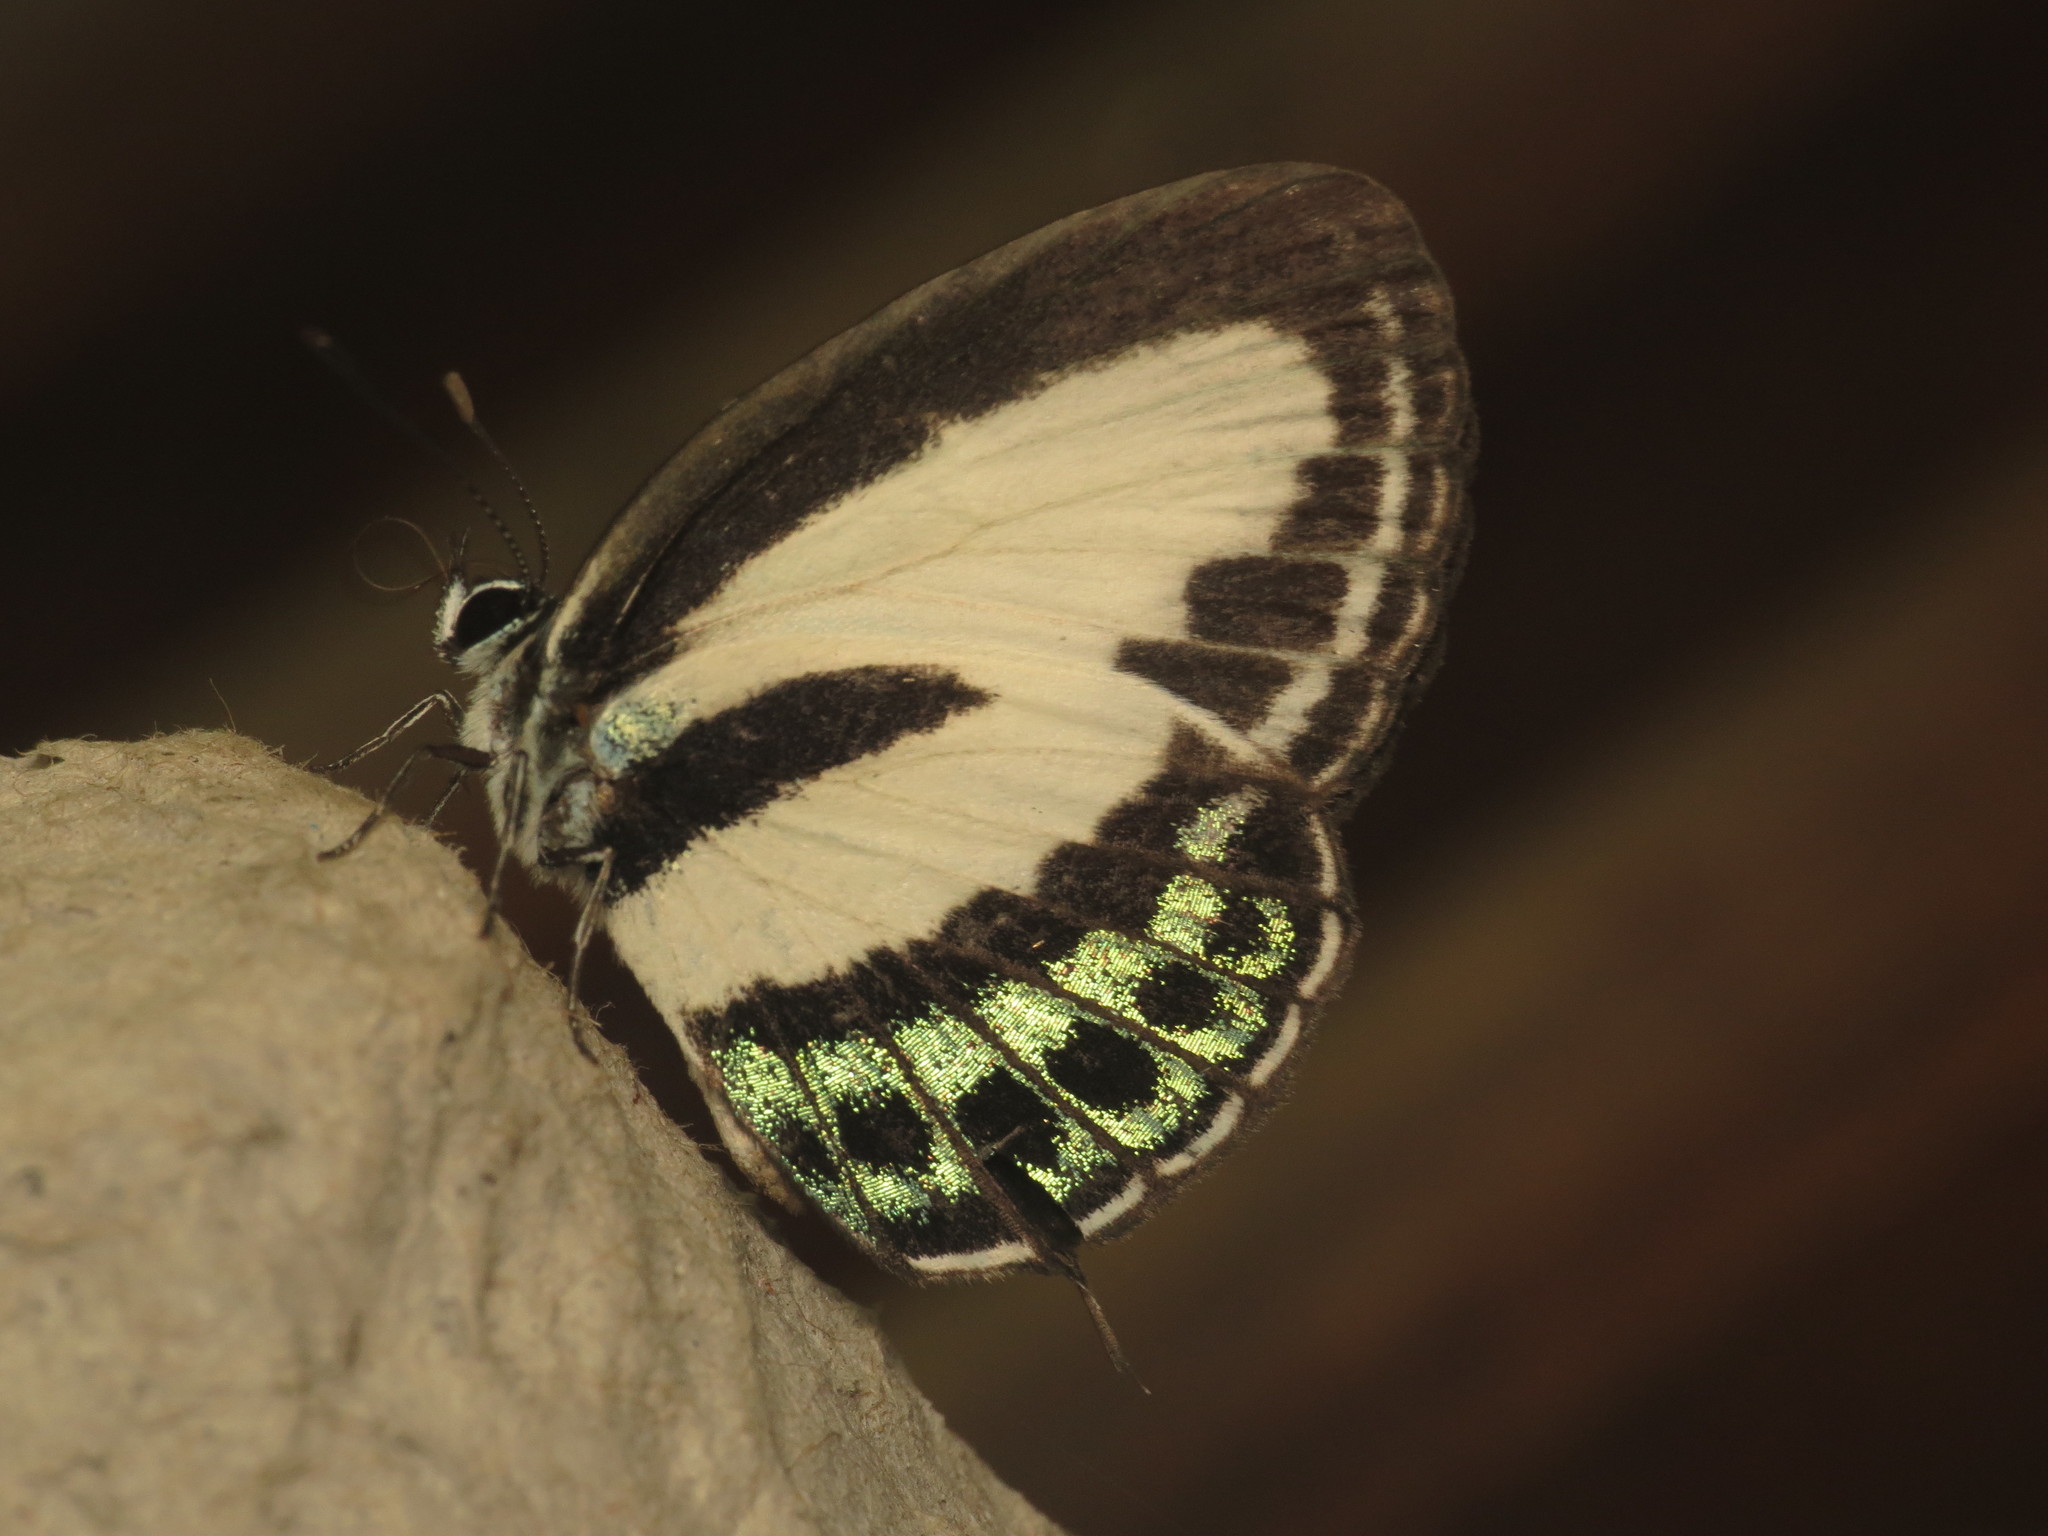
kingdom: Animalia
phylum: Arthropoda
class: Insecta
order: Lepidoptera
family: Lycaenidae
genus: Nacaduba
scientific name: Nacaduba cyanea
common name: Tailed green-banded line blue
